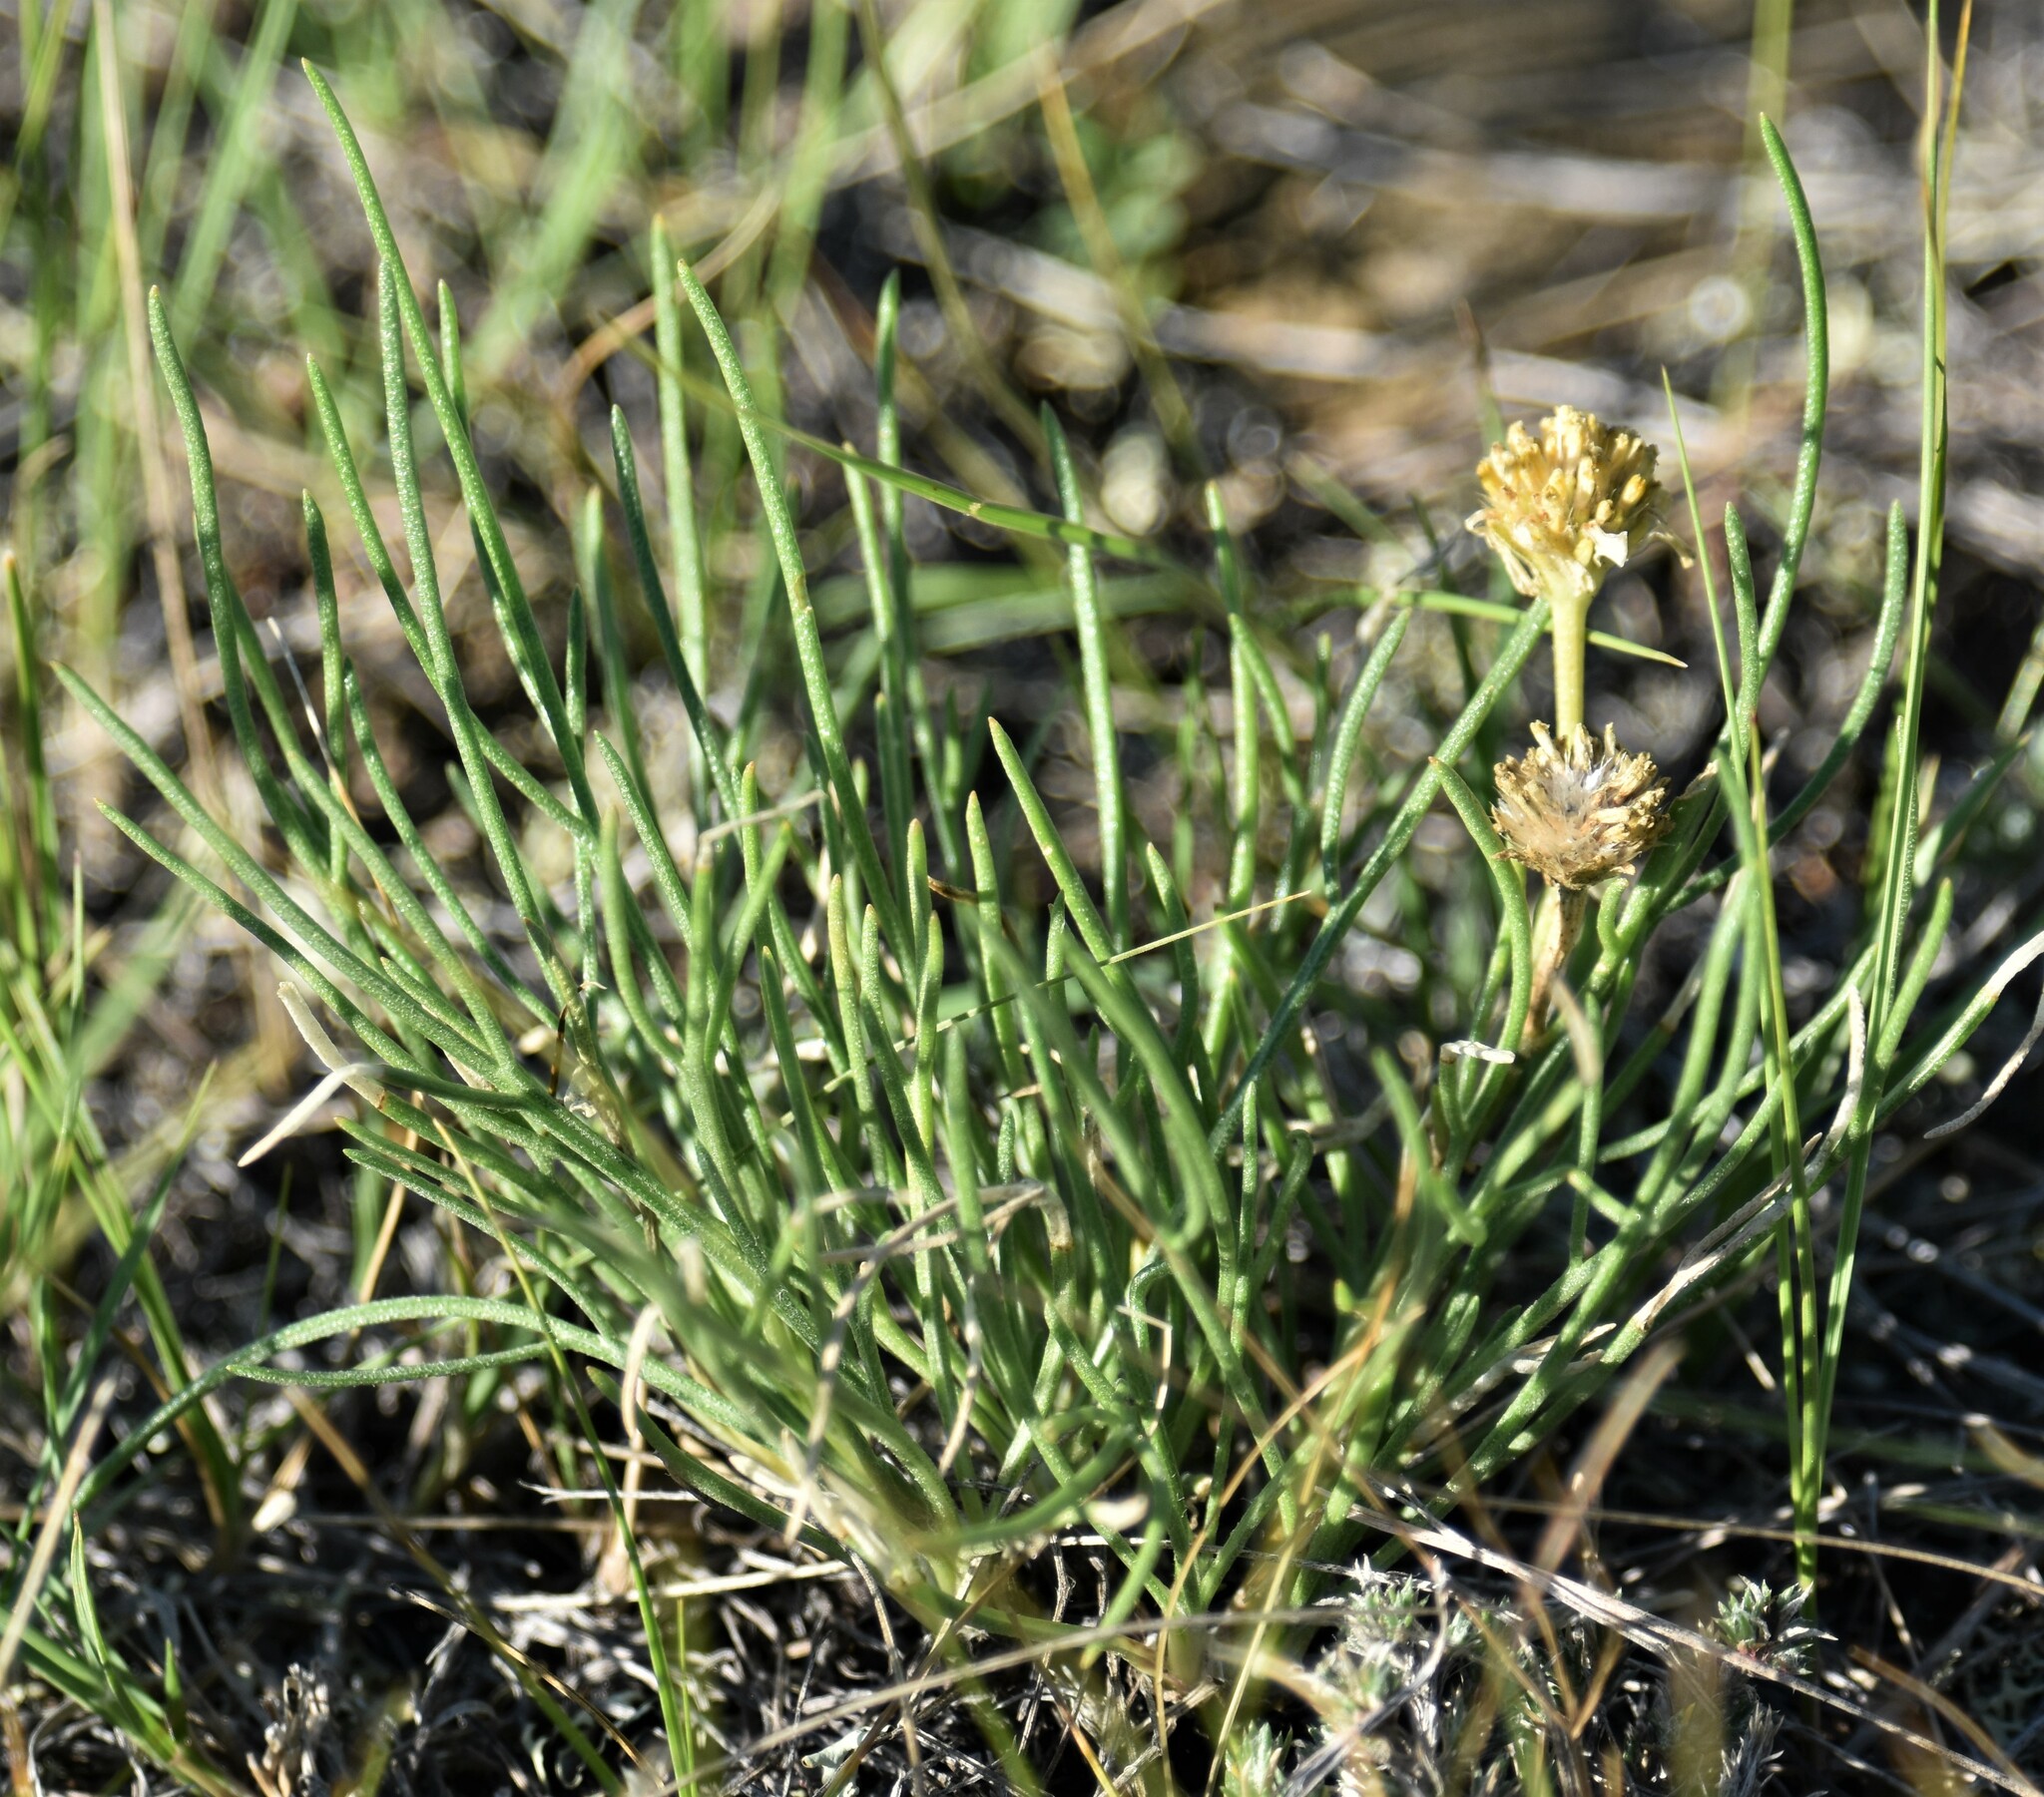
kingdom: Plantae
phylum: Tracheophyta
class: Magnoliopsida
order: Asterales
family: Asteraceae
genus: Hymenoxys
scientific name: Hymenoxys richardsonii
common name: Pingue rubberweed
